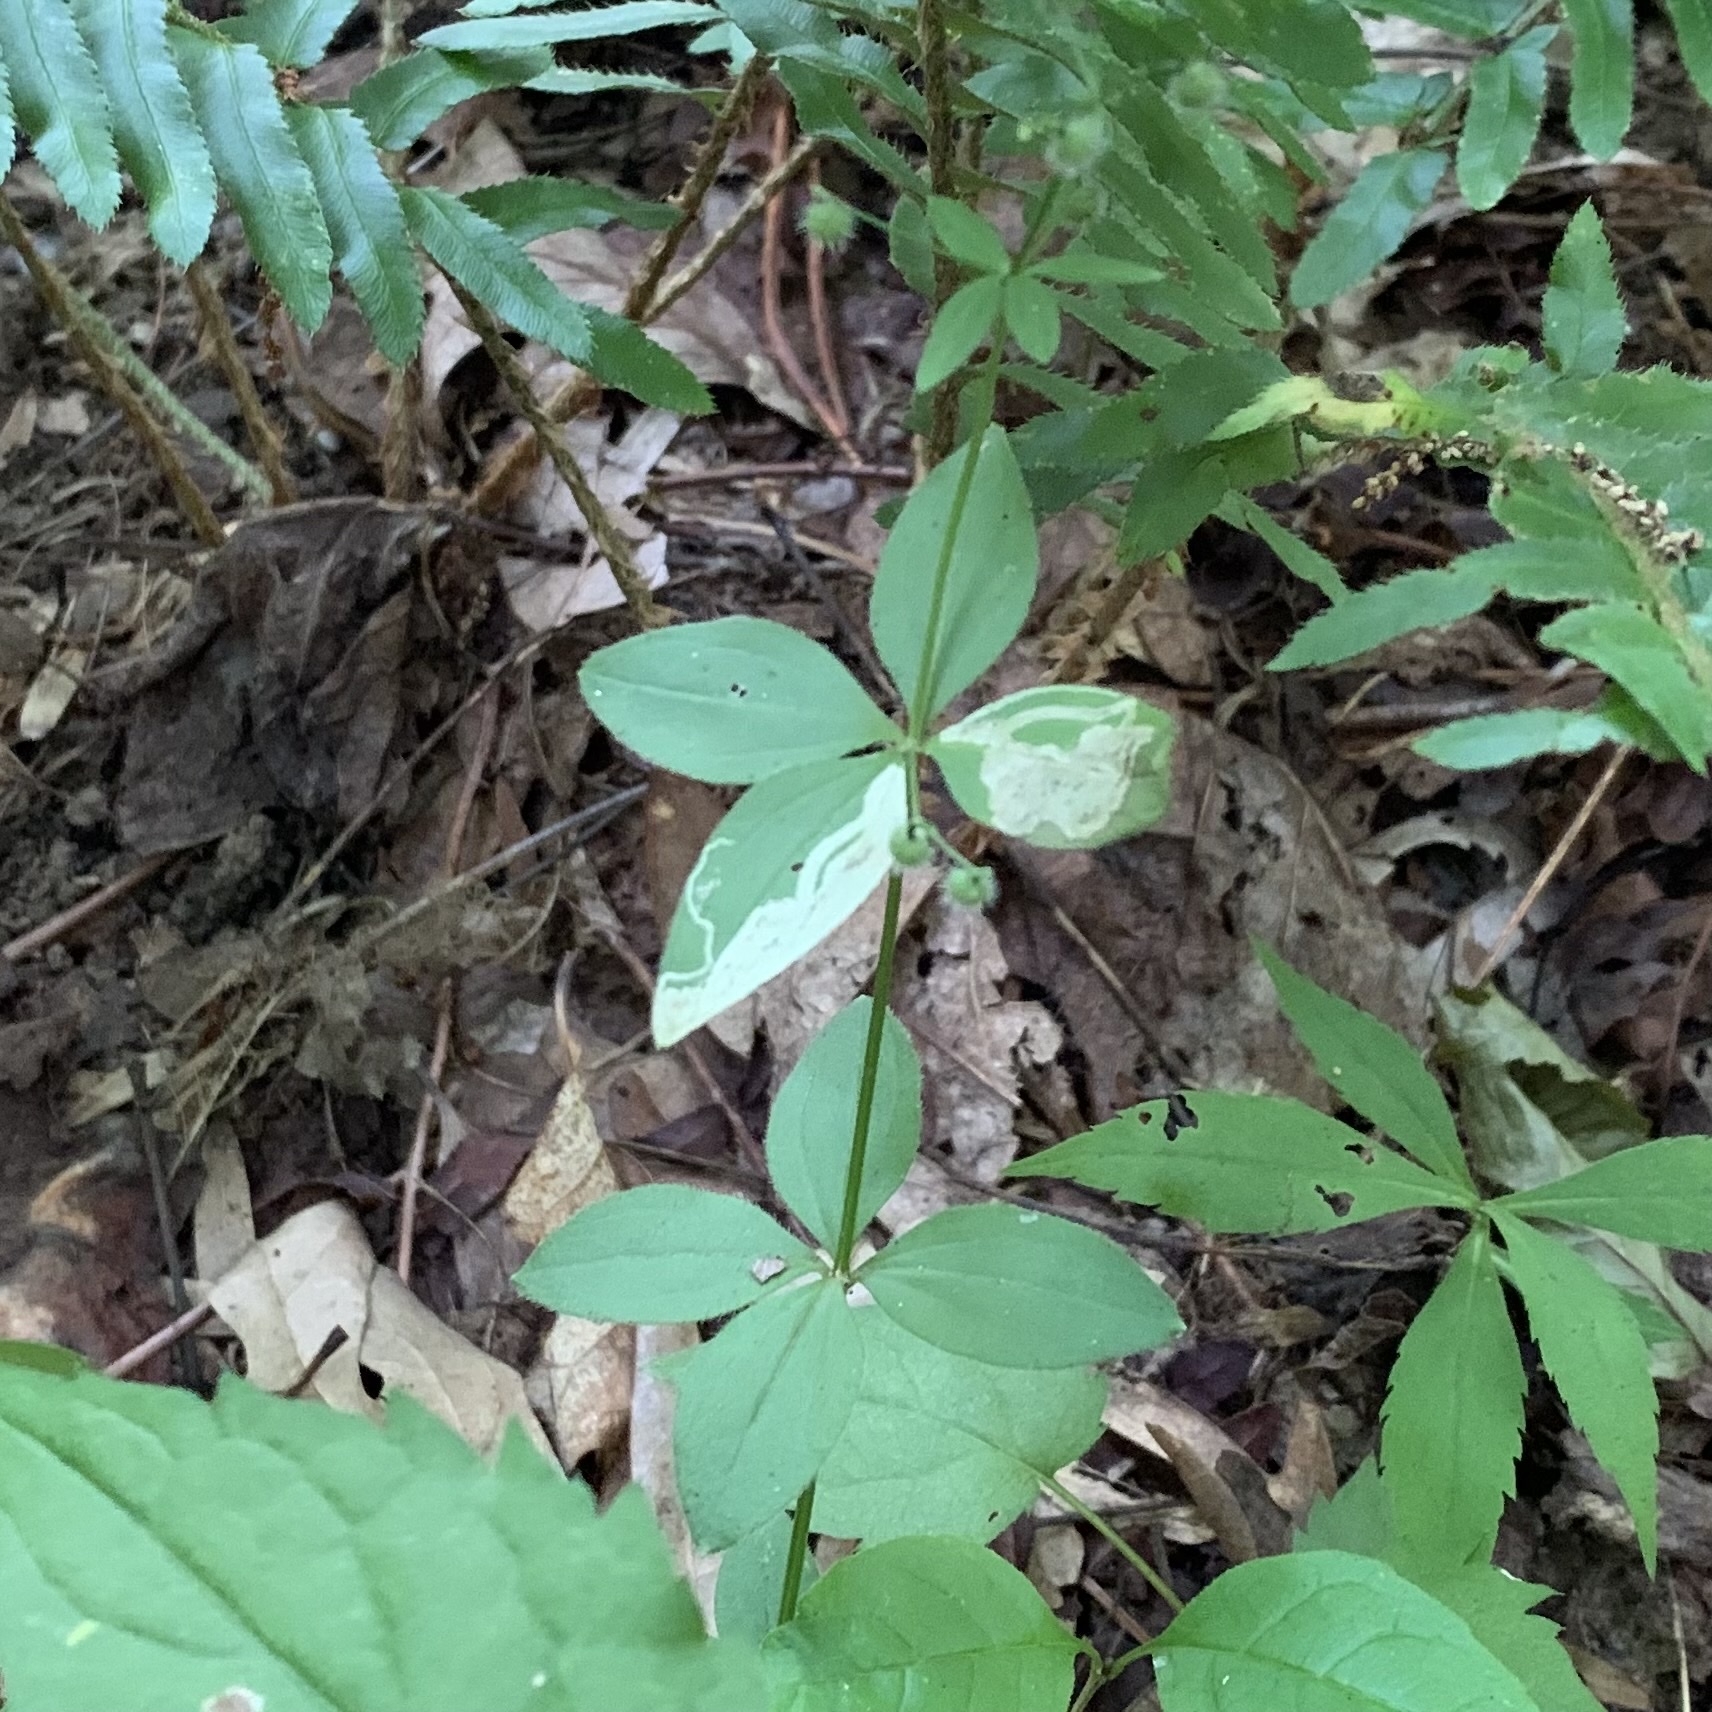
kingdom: Animalia
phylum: Arthropoda
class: Insecta
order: Diptera
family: Agromyzidae
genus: Liriomyza
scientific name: Liriomyza galiivora
